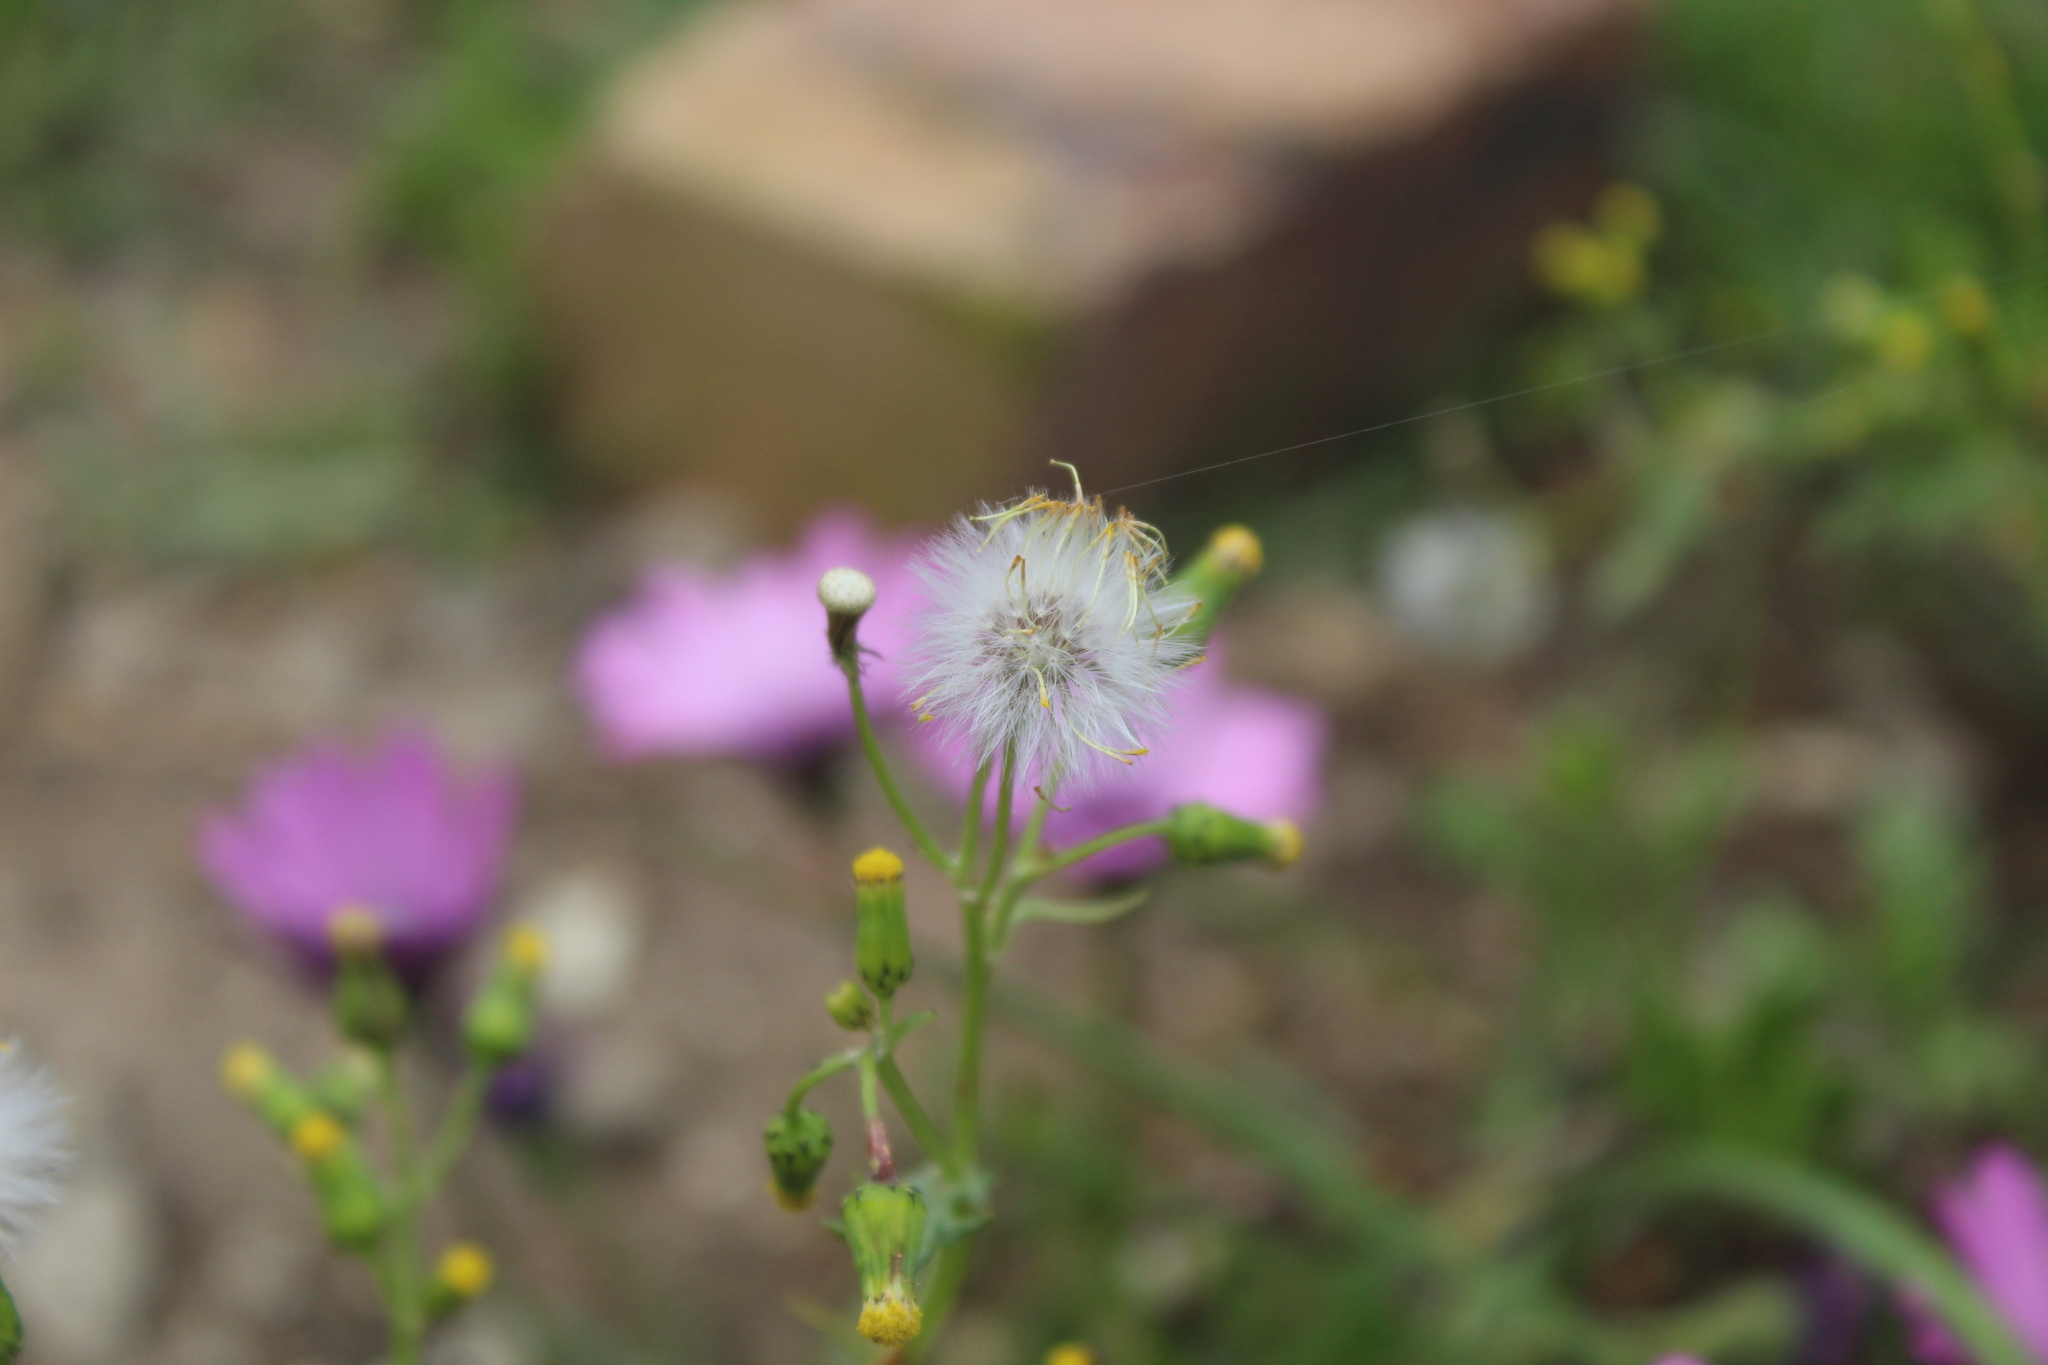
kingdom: Plantae
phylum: Tracheophyta
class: Magnoliopsida
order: Asterales
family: Asteraceae
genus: Senecio
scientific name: Senecio vulgaris
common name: Old-man-in-the-spring
